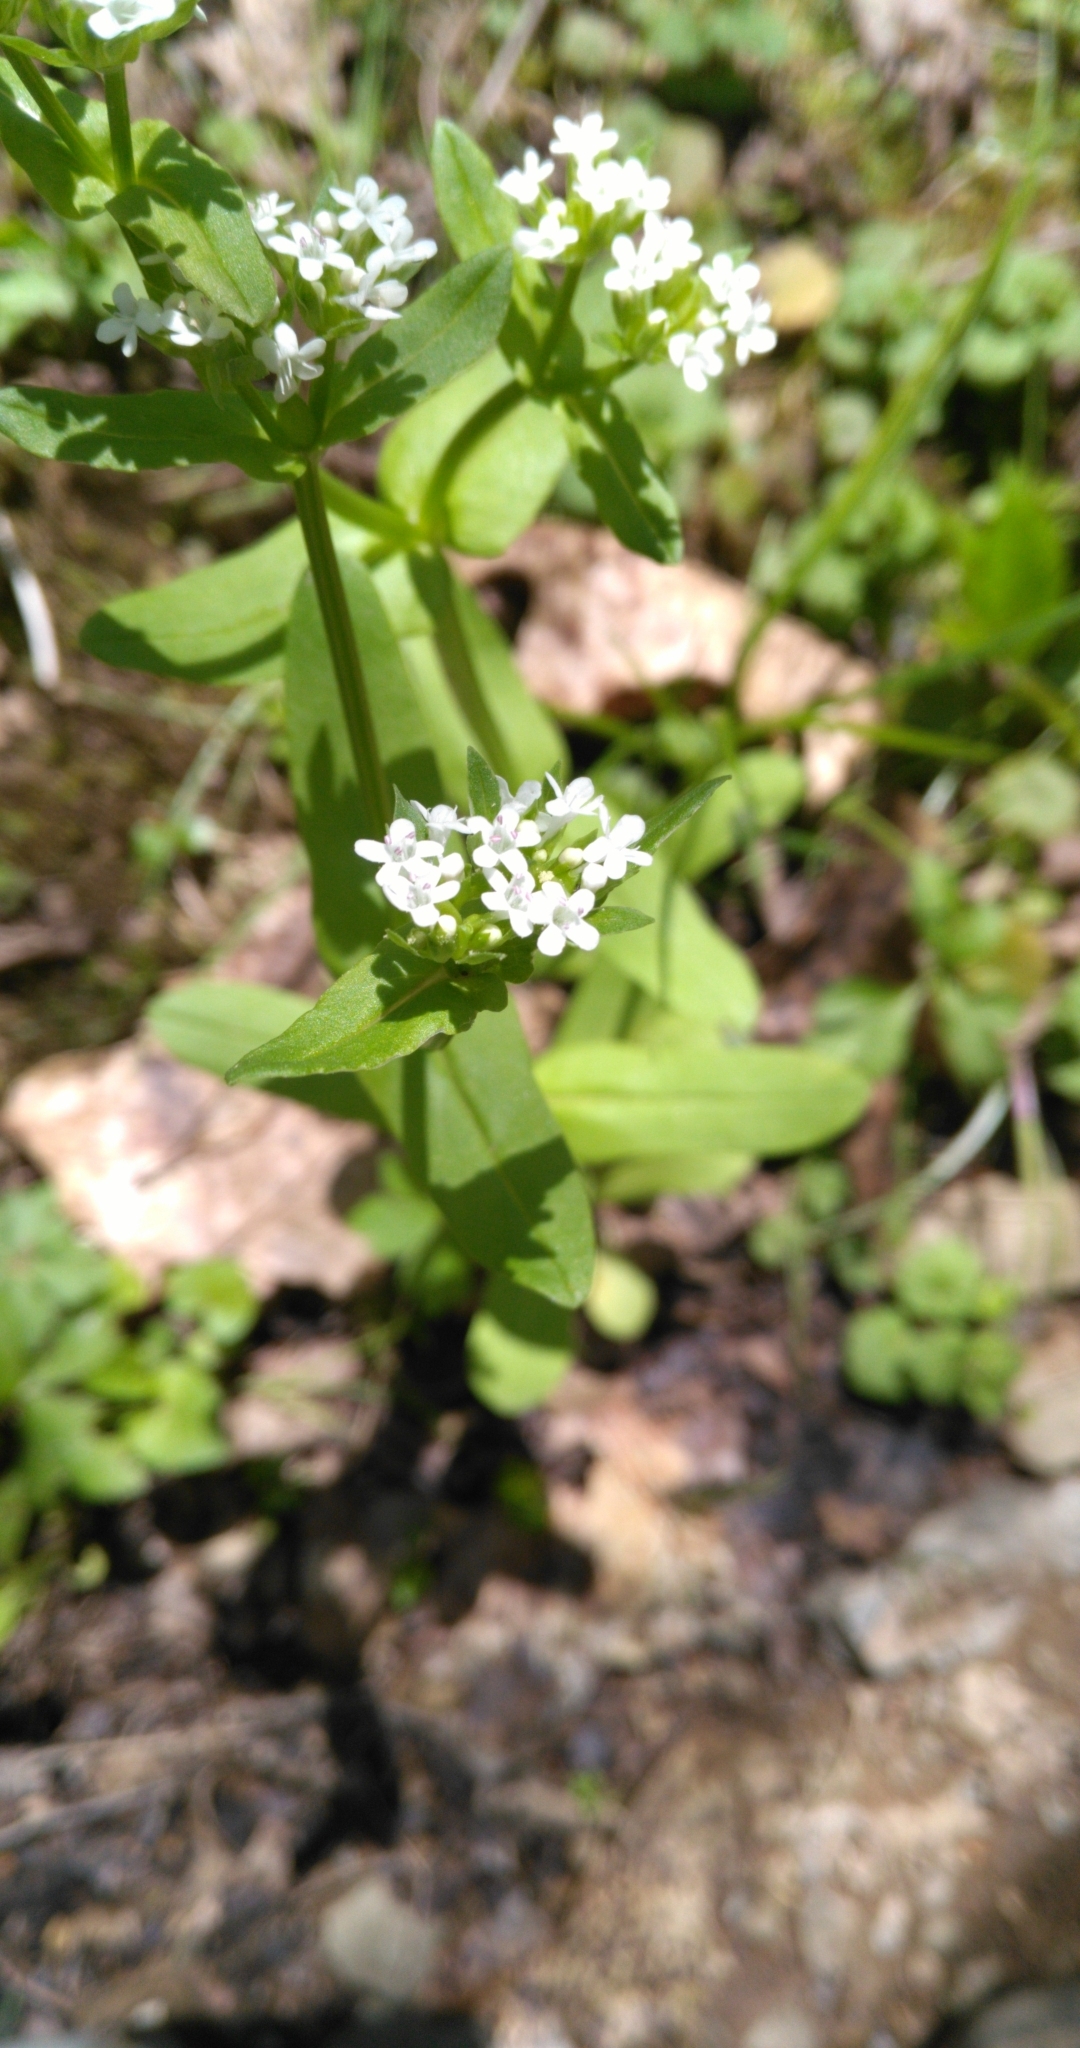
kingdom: Plantae
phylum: Tracheophyta
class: Magnoliopsida
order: Dipsacales
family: Caprifoliaceae
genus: Valerianella
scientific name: Valerianella locusta
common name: Common cornsalad
